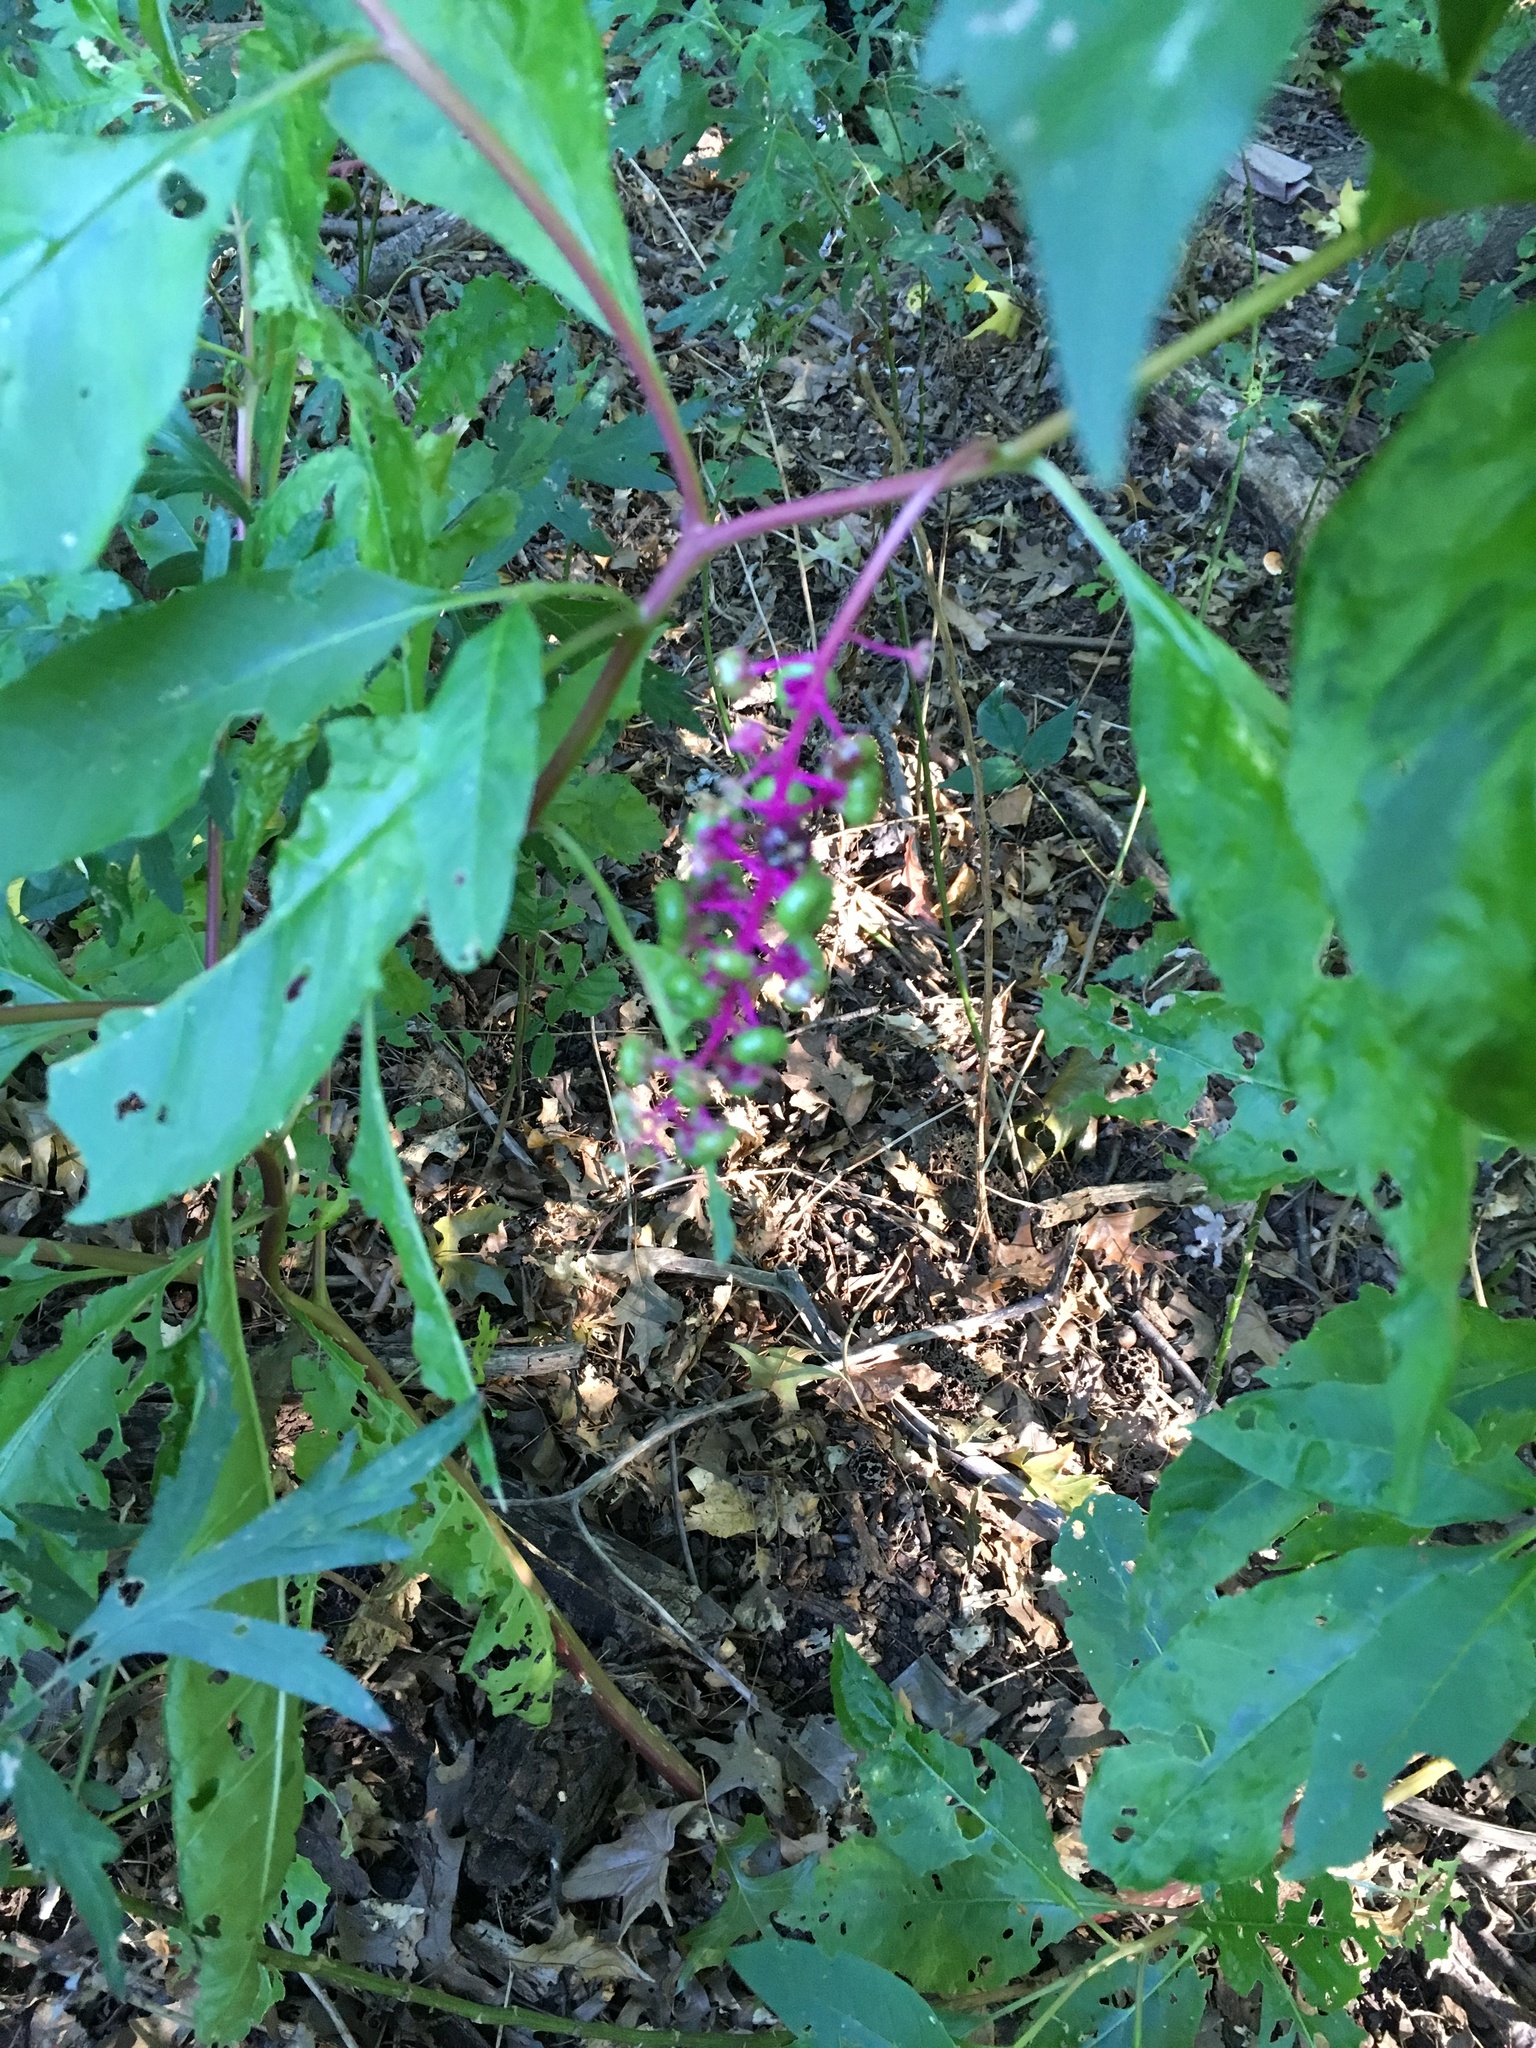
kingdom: Plantae
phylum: Tracheophyta
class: Magnoliopsida
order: Caryophyllales
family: Phytolaccaceae
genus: Phytolacca
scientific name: Phytolacca americana
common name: American pokeweed
